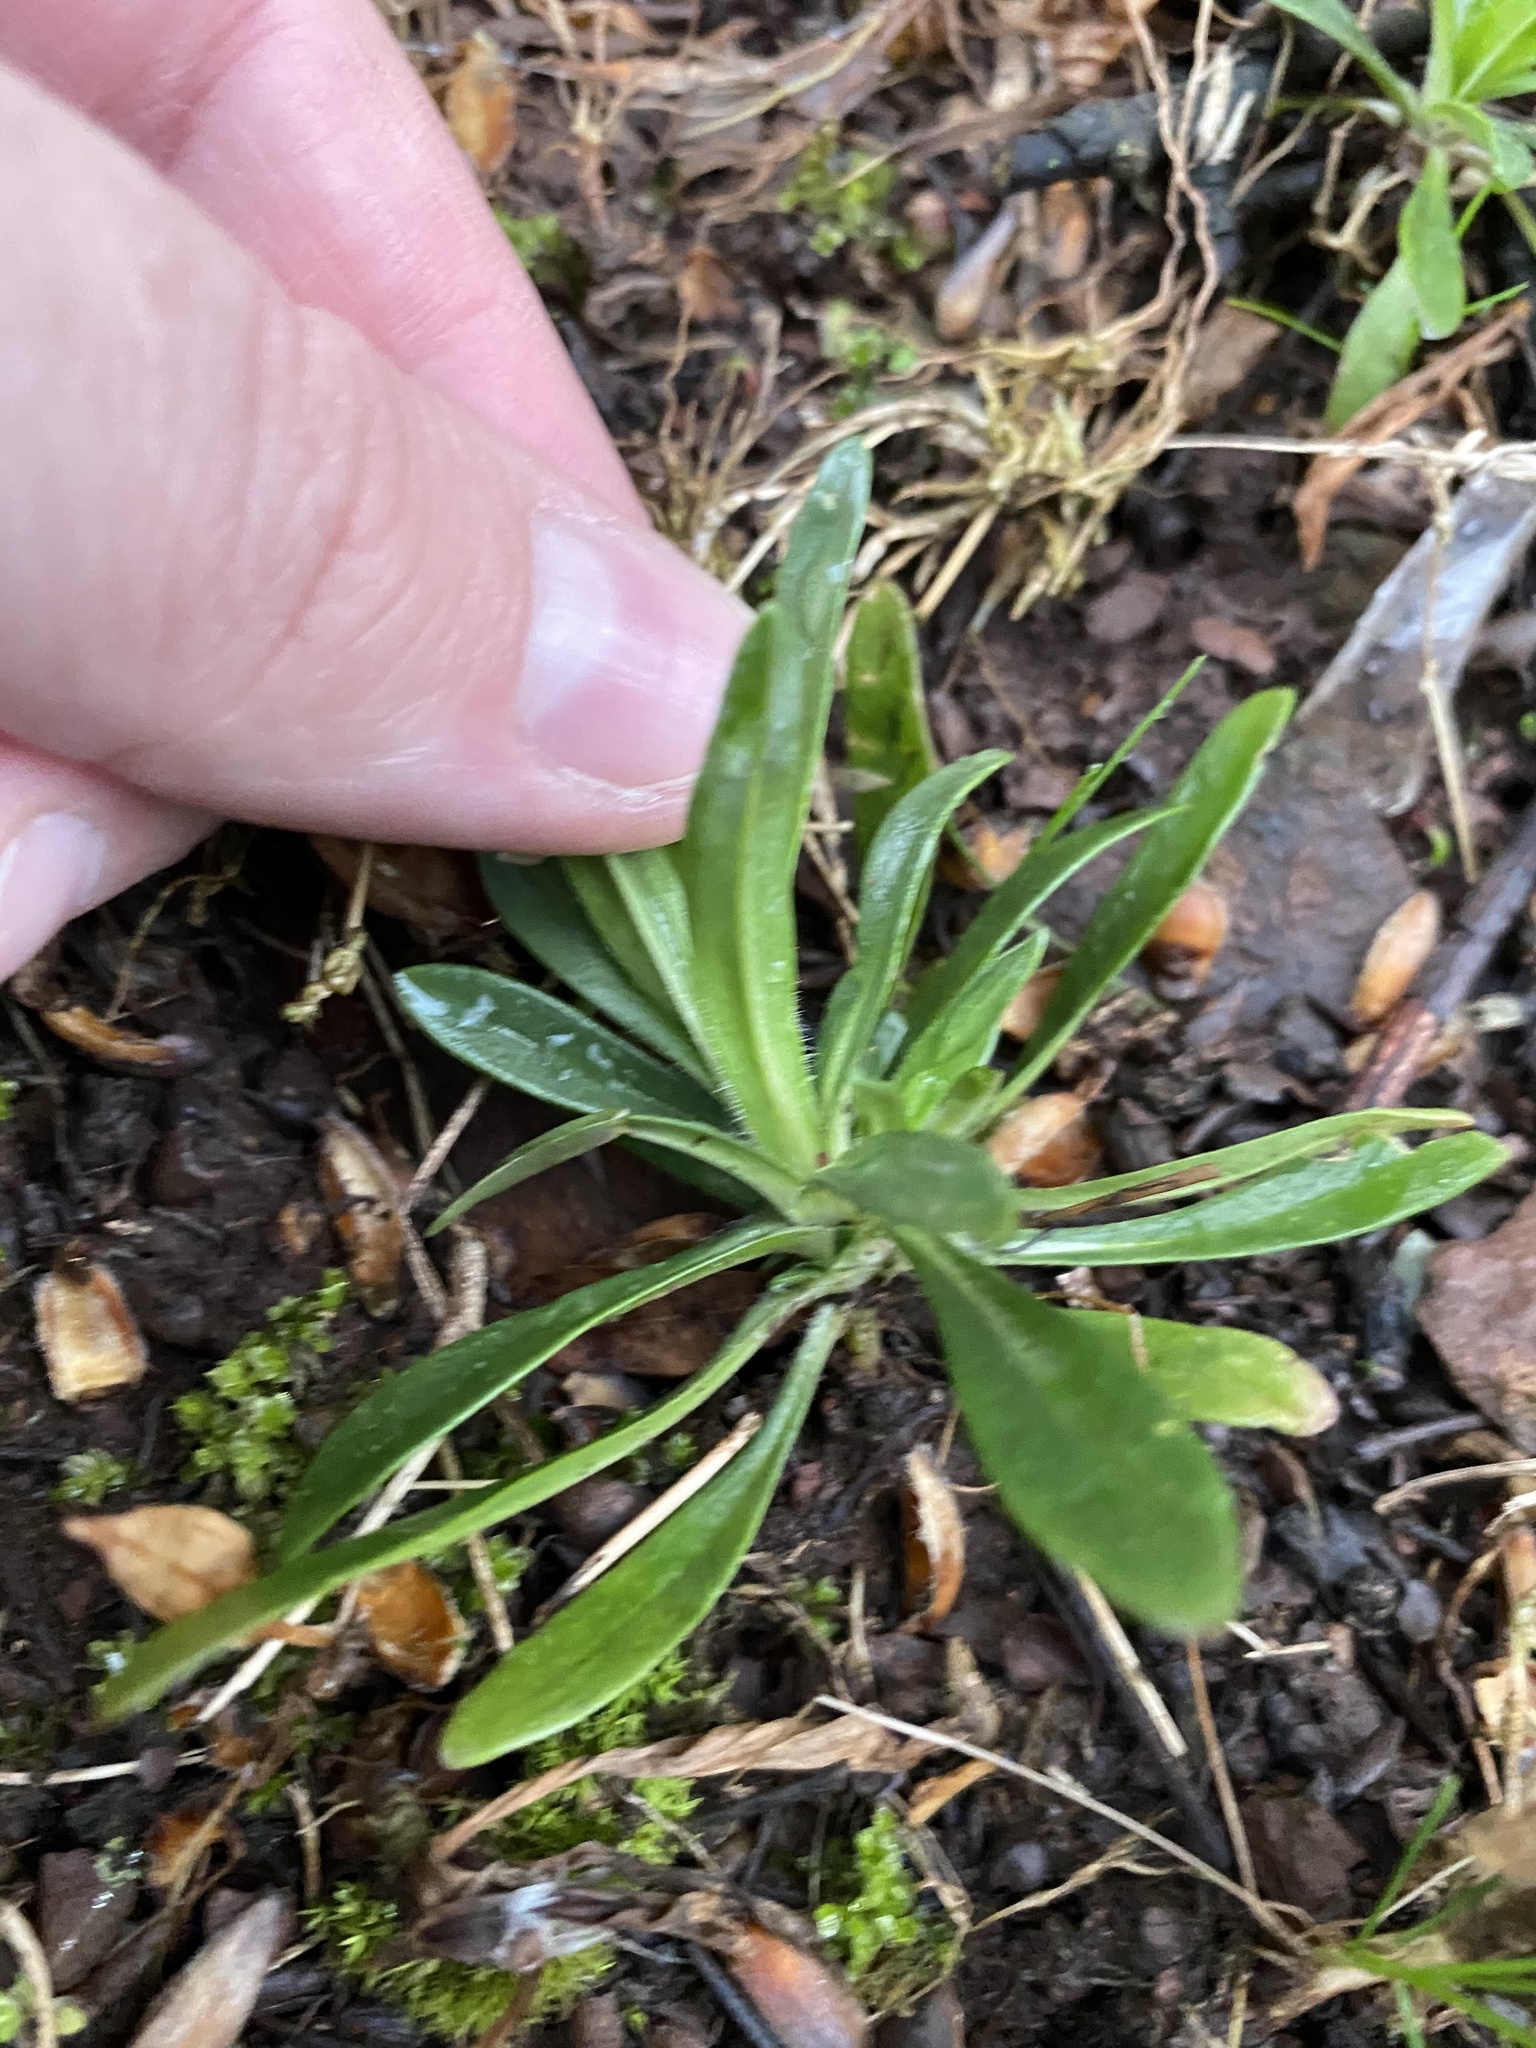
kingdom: Plantae
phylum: Tracheophyta
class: Magnoliopsida
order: Caryophyllales
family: Caryophyllaceae
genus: Dianthus
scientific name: Dianthus armeria
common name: Deptford pink
